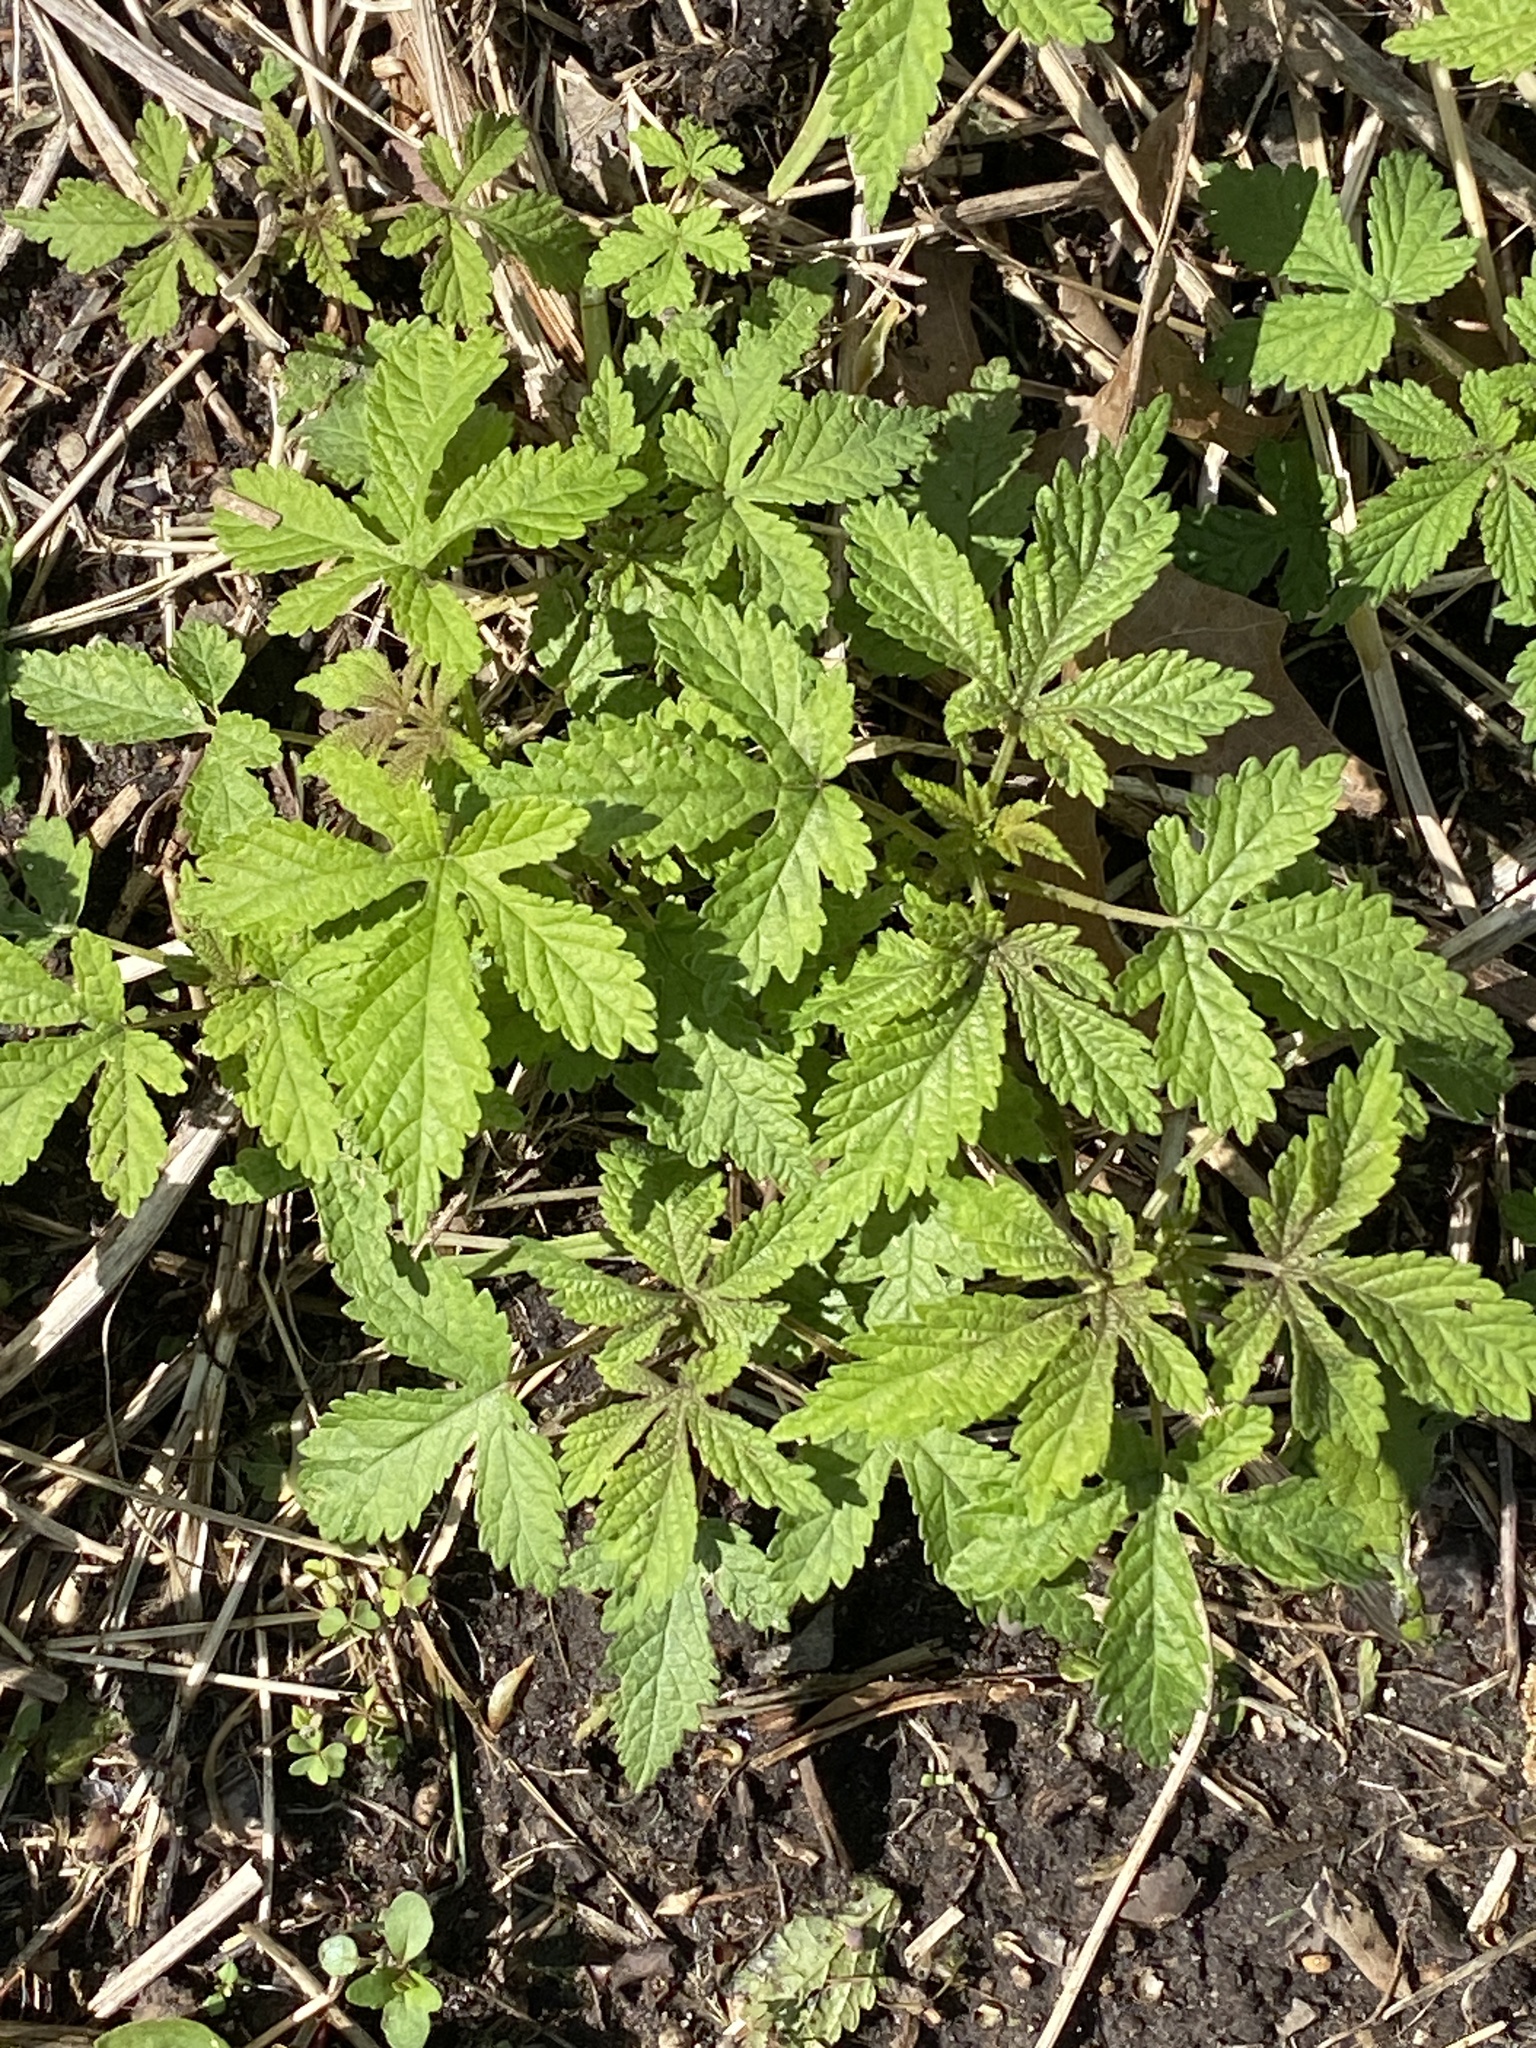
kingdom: Plantae
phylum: Tracheophyta
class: Magnoliopsida
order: Rosales
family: Cannabaceae
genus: Humulus
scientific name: Humulus scandens
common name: Japanese hop
